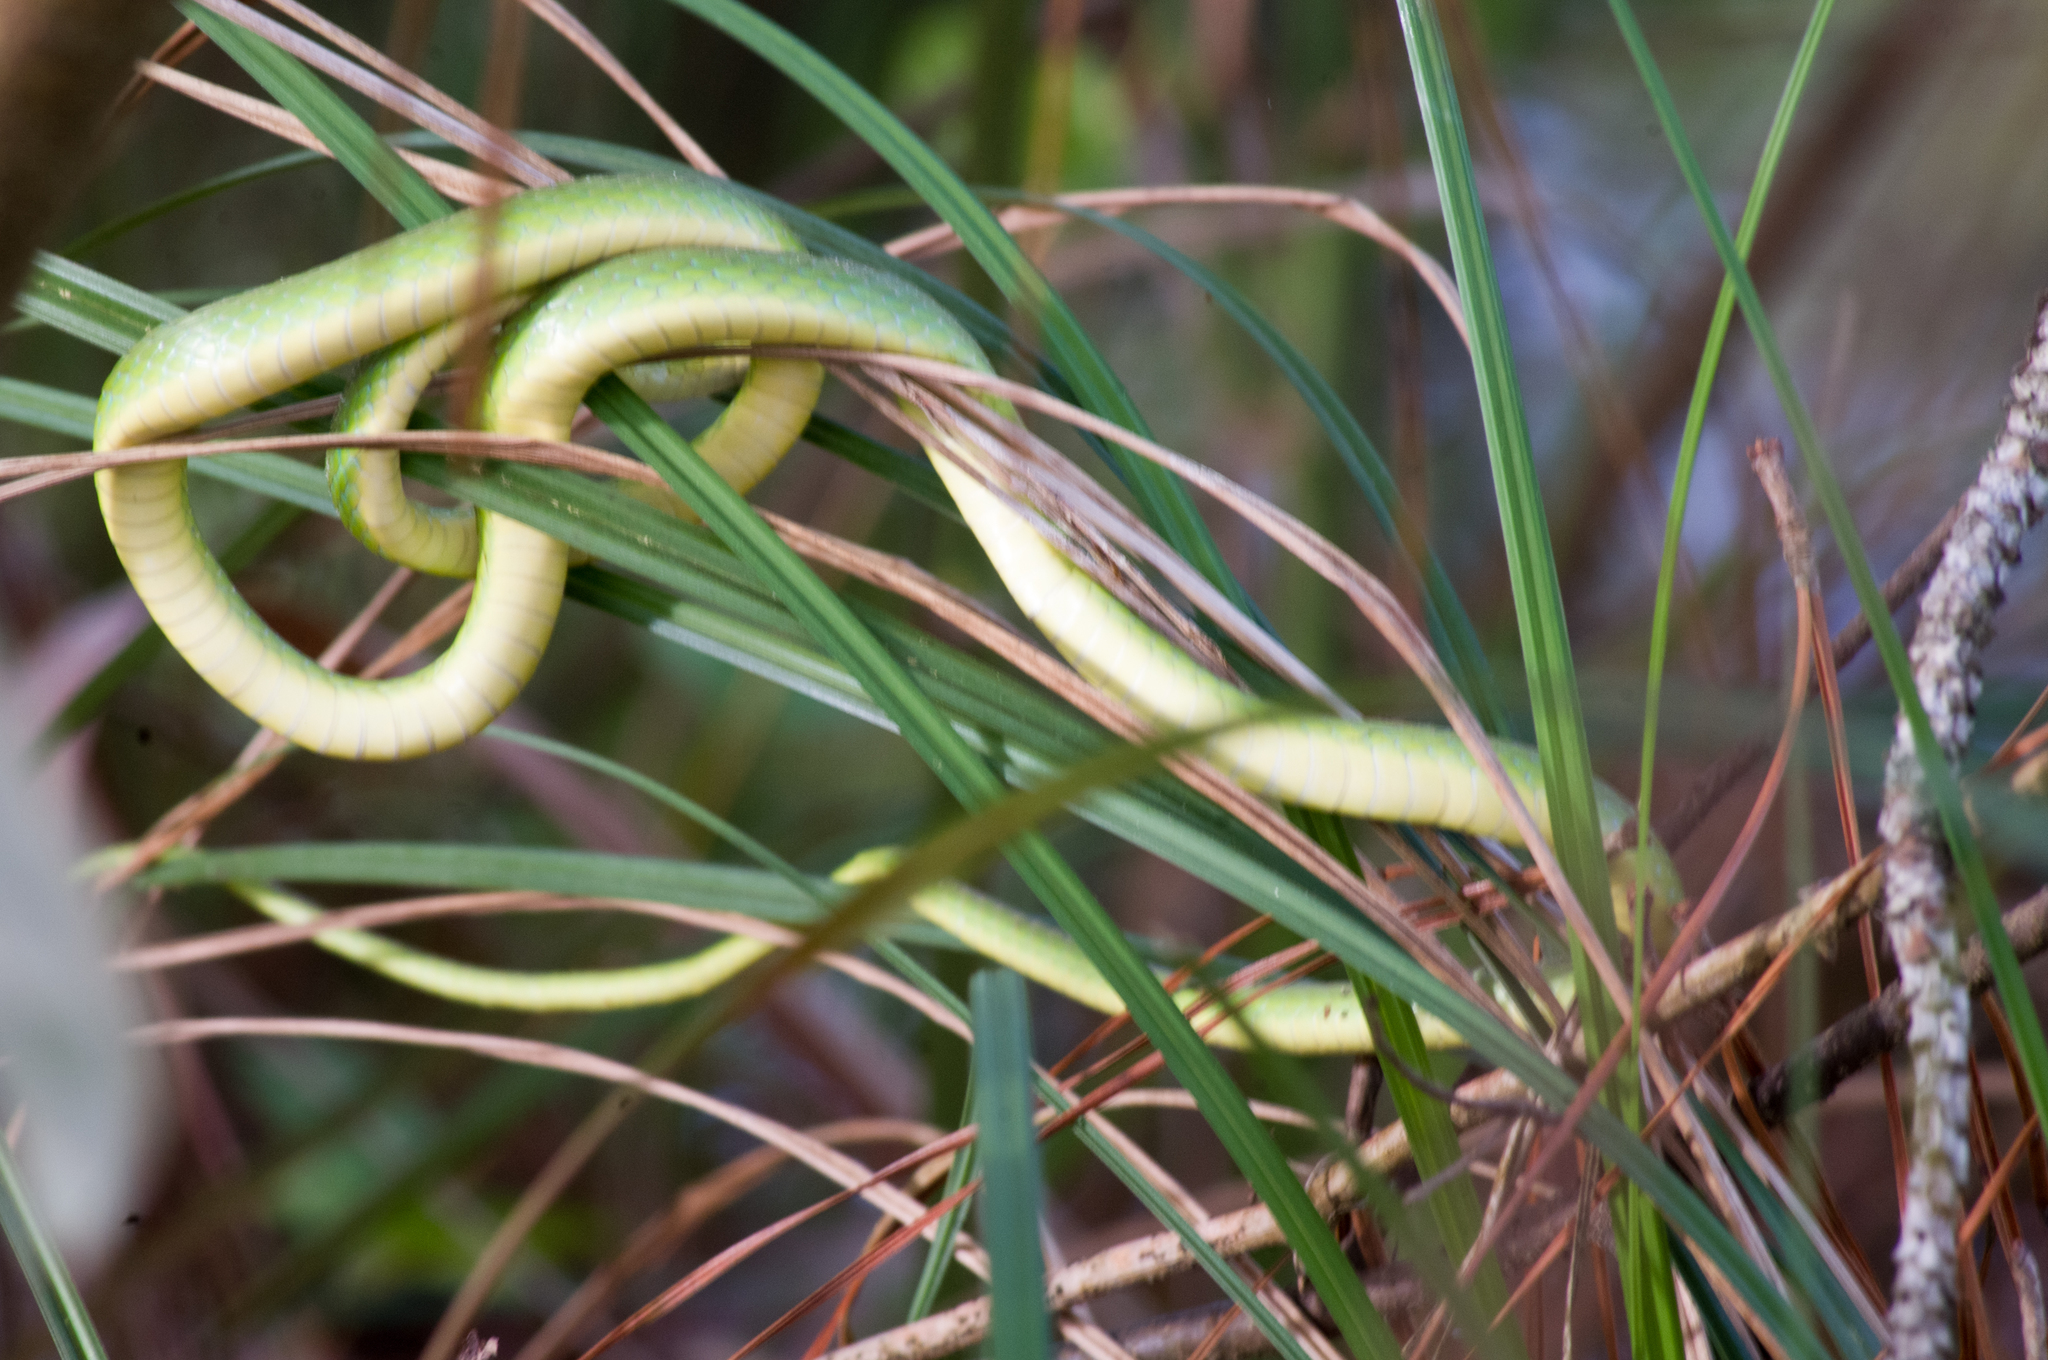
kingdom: Animalia
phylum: Chordata
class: Squamata
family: Colubridae
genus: Opheodrys
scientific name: Opheodrys aestivus
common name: Rough greensnake
